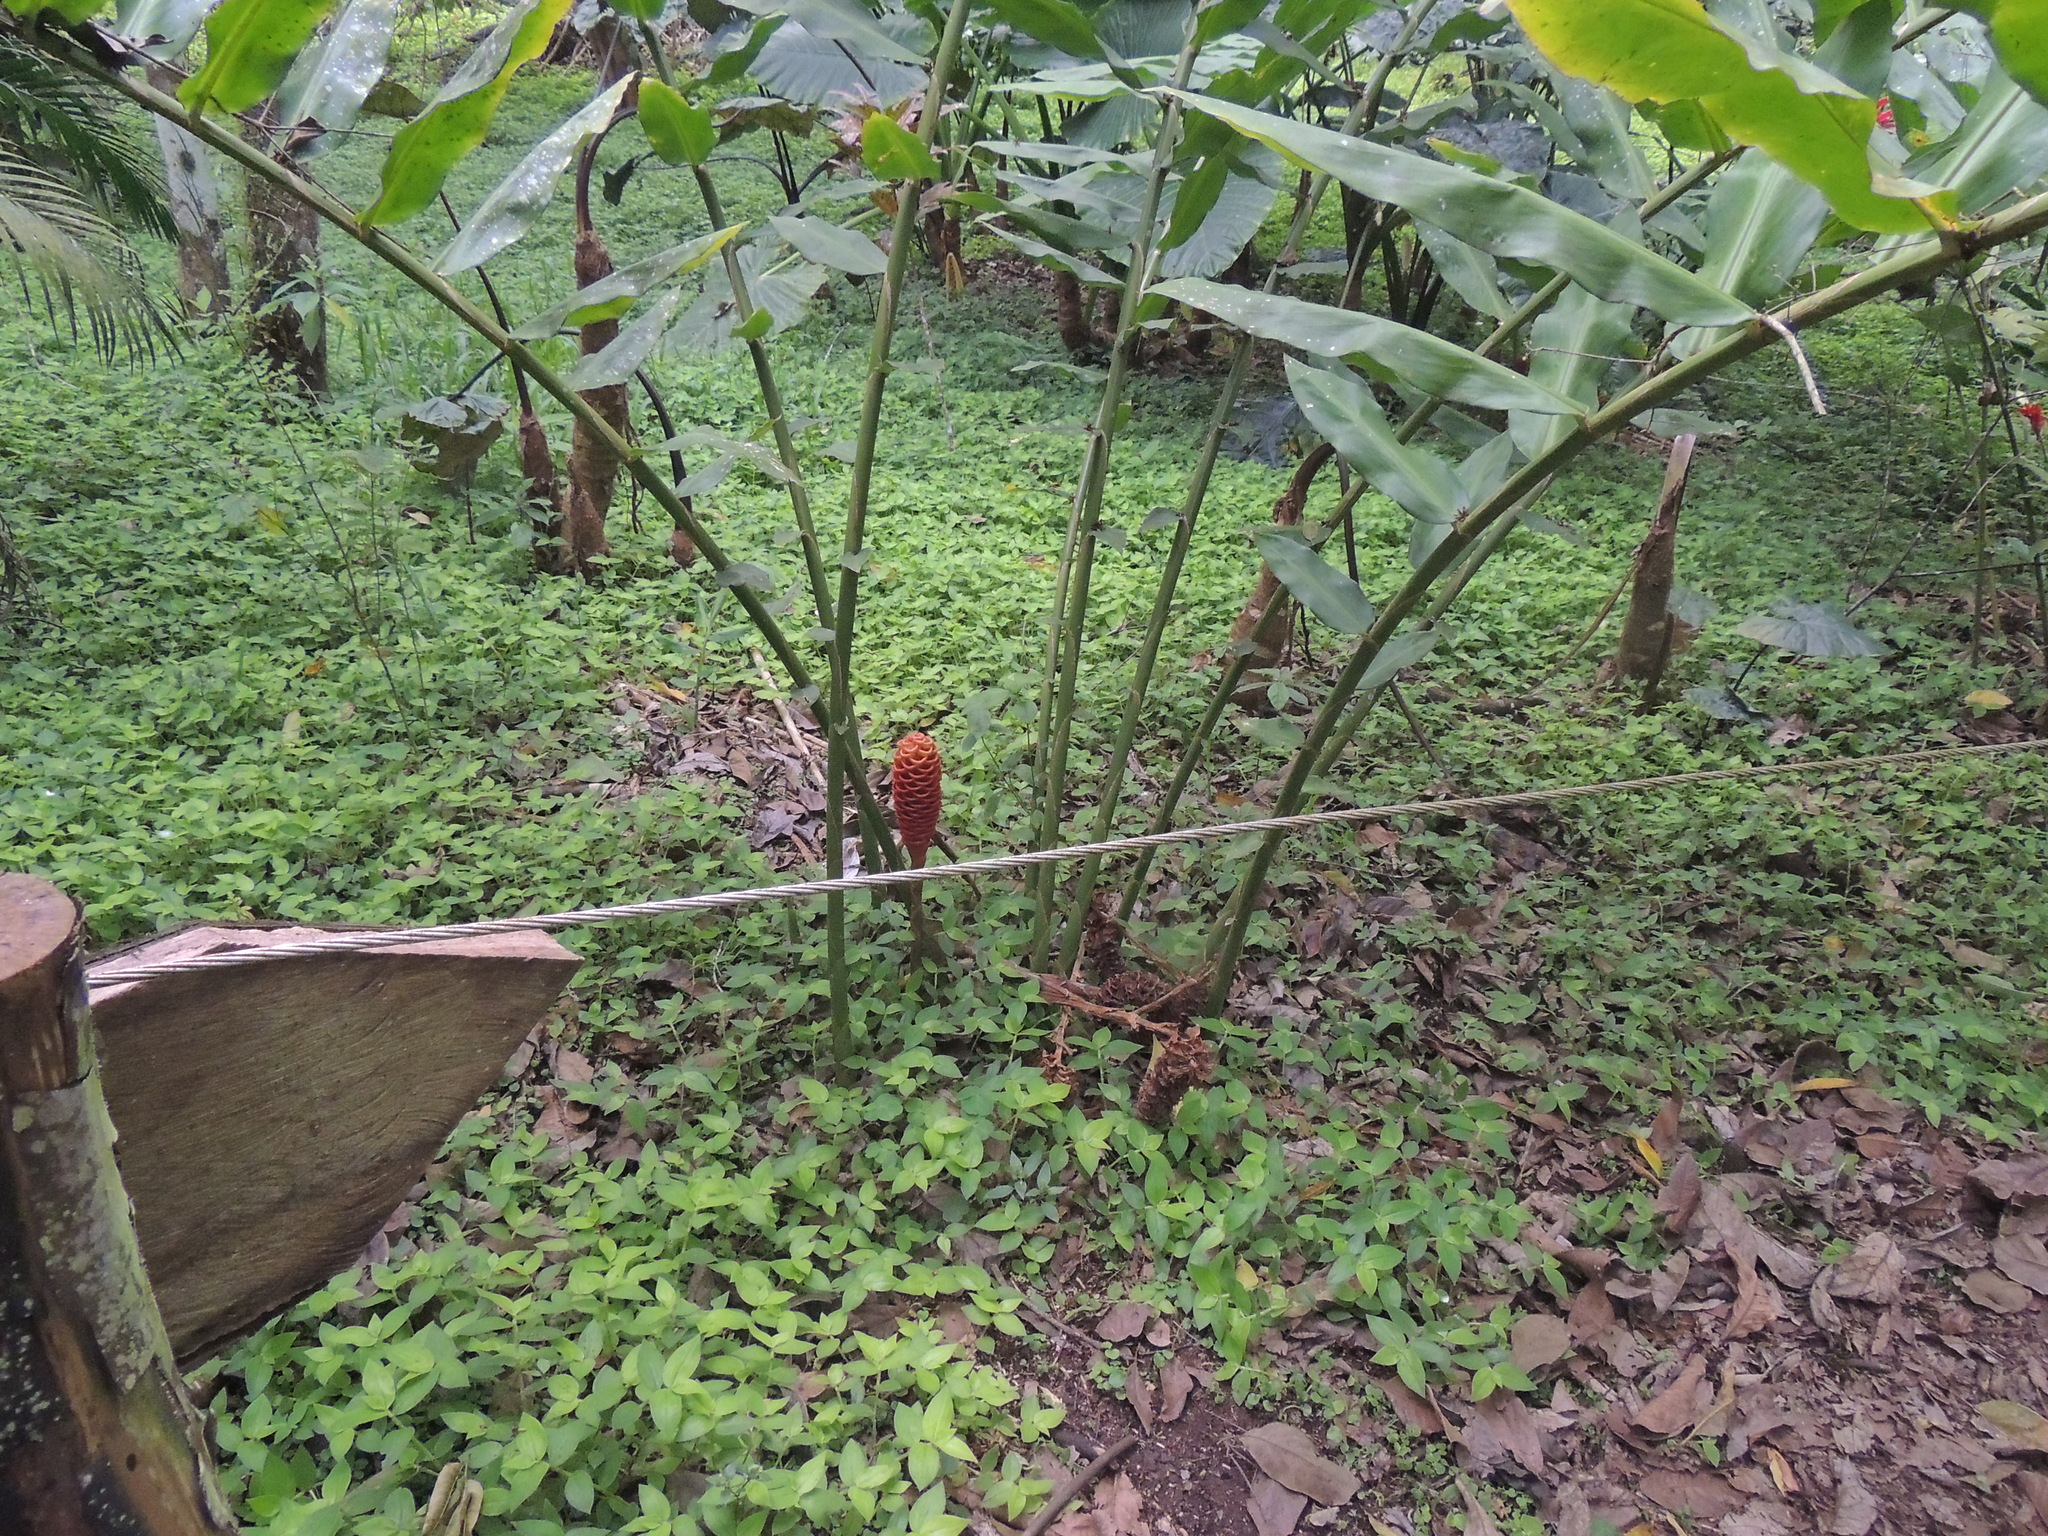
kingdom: Plantae
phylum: Tracheophyta
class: Liliopsida
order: Zingiberales
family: Zingiberaceae
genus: Zingiber
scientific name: Zingiber spectabile
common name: Beehive ginger
